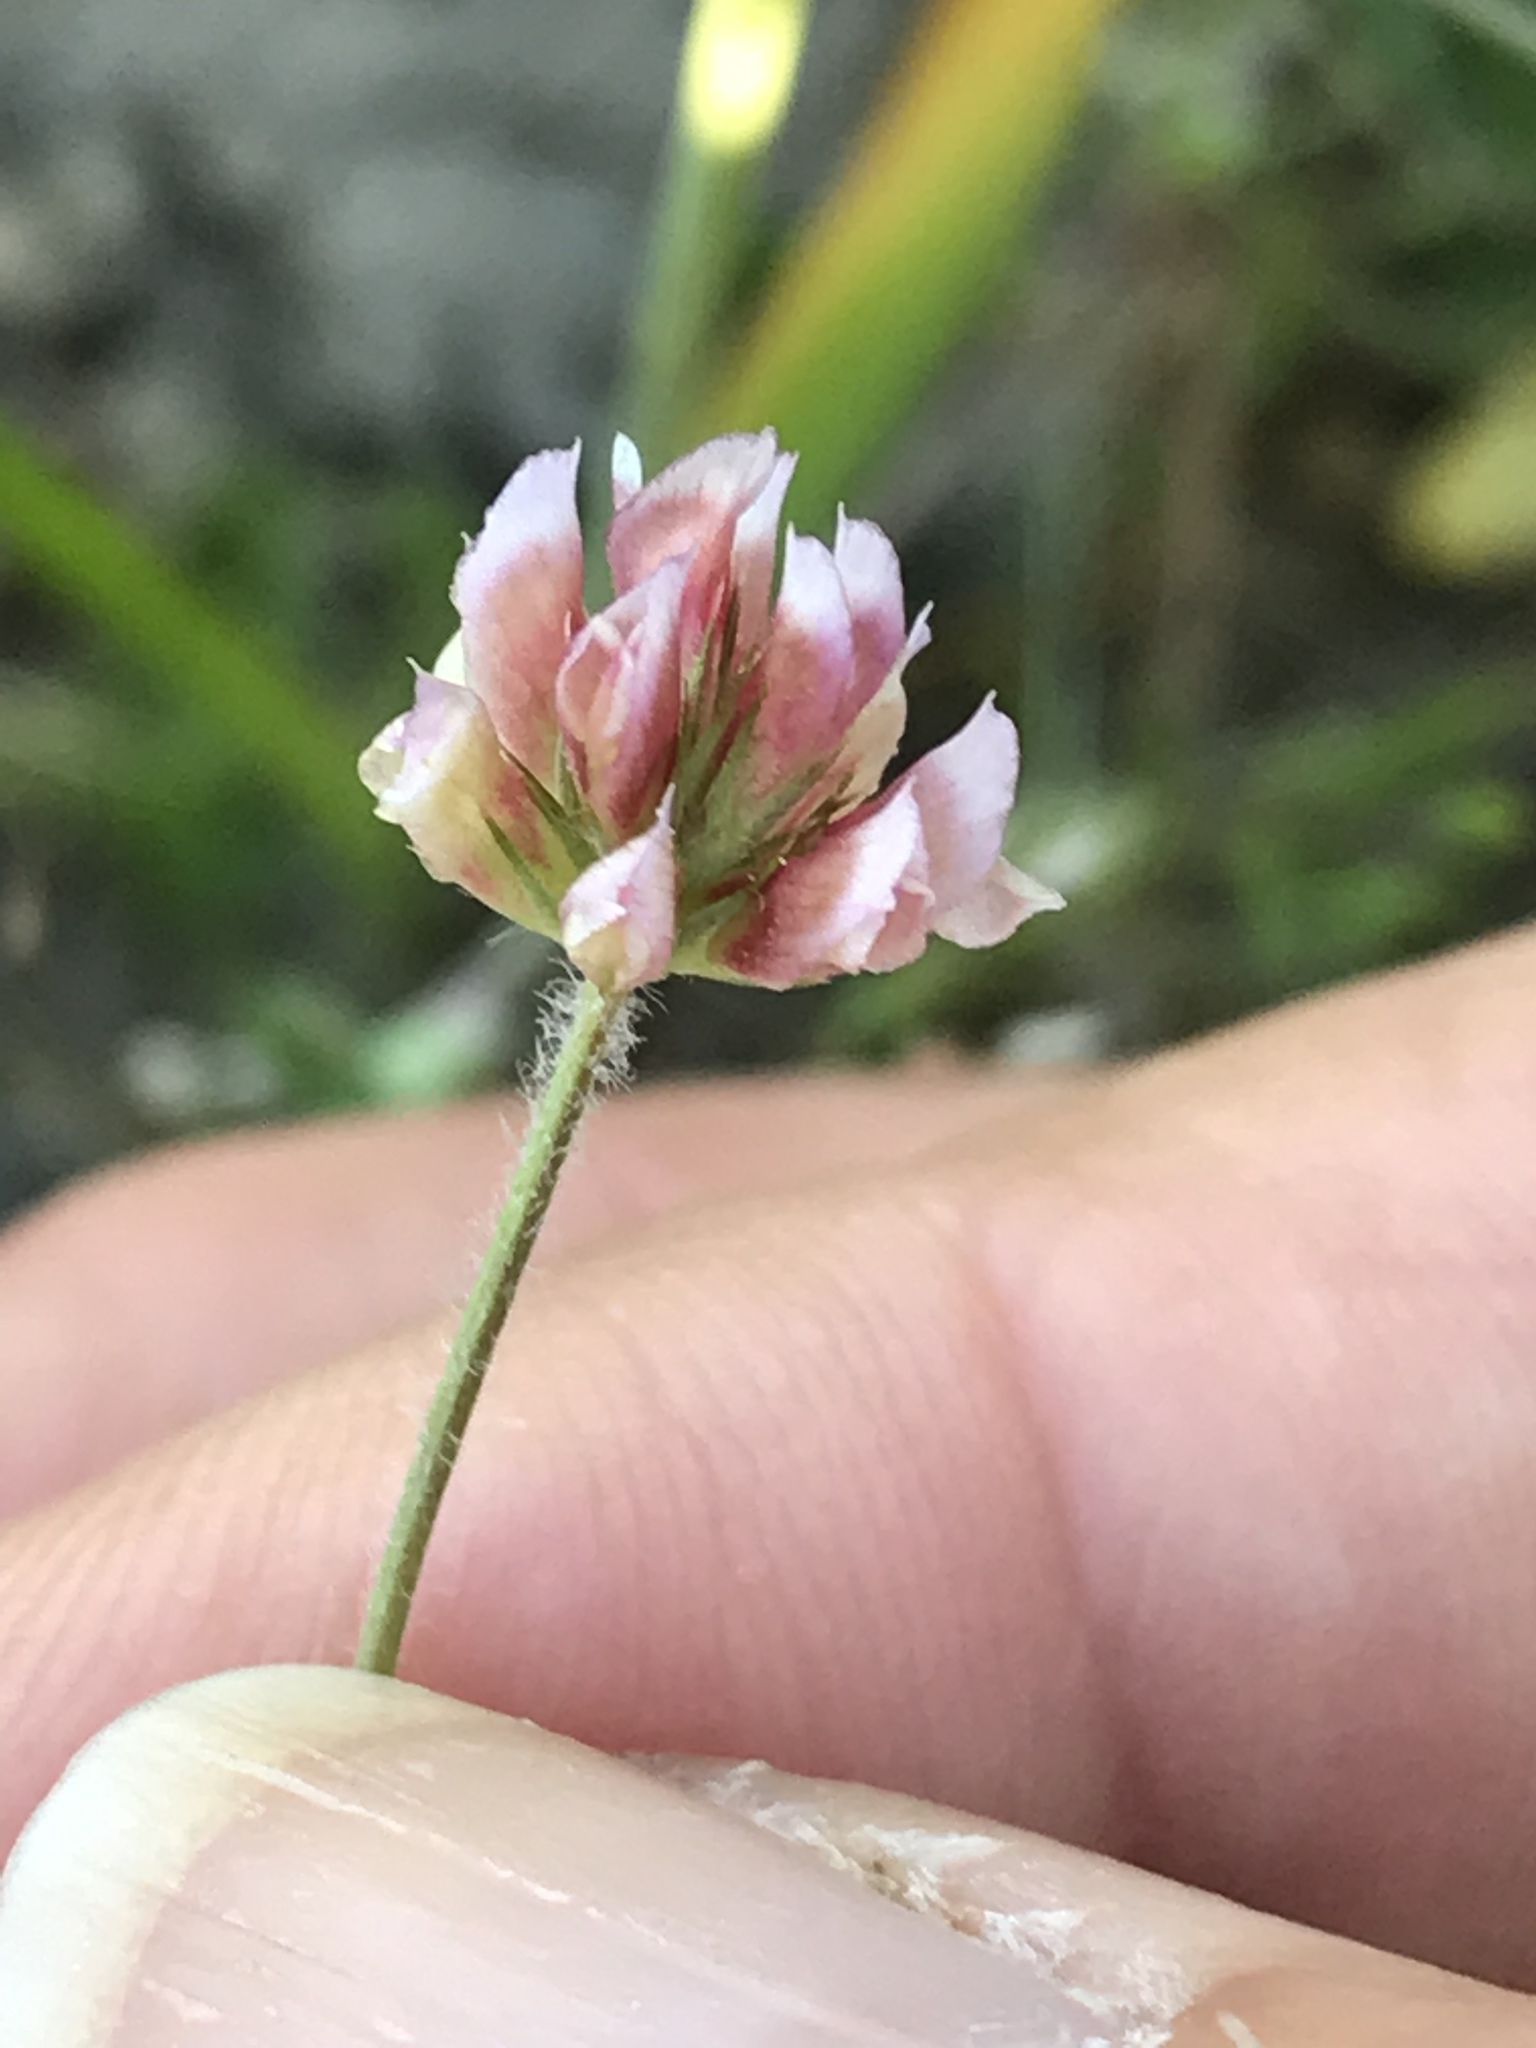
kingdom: Plantae
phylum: Tracheophyta
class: Magnoliopsida
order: Fabales
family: Fabaceae
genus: Trifolium
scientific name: Trifolium bifidum
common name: Notch-leaf clover
